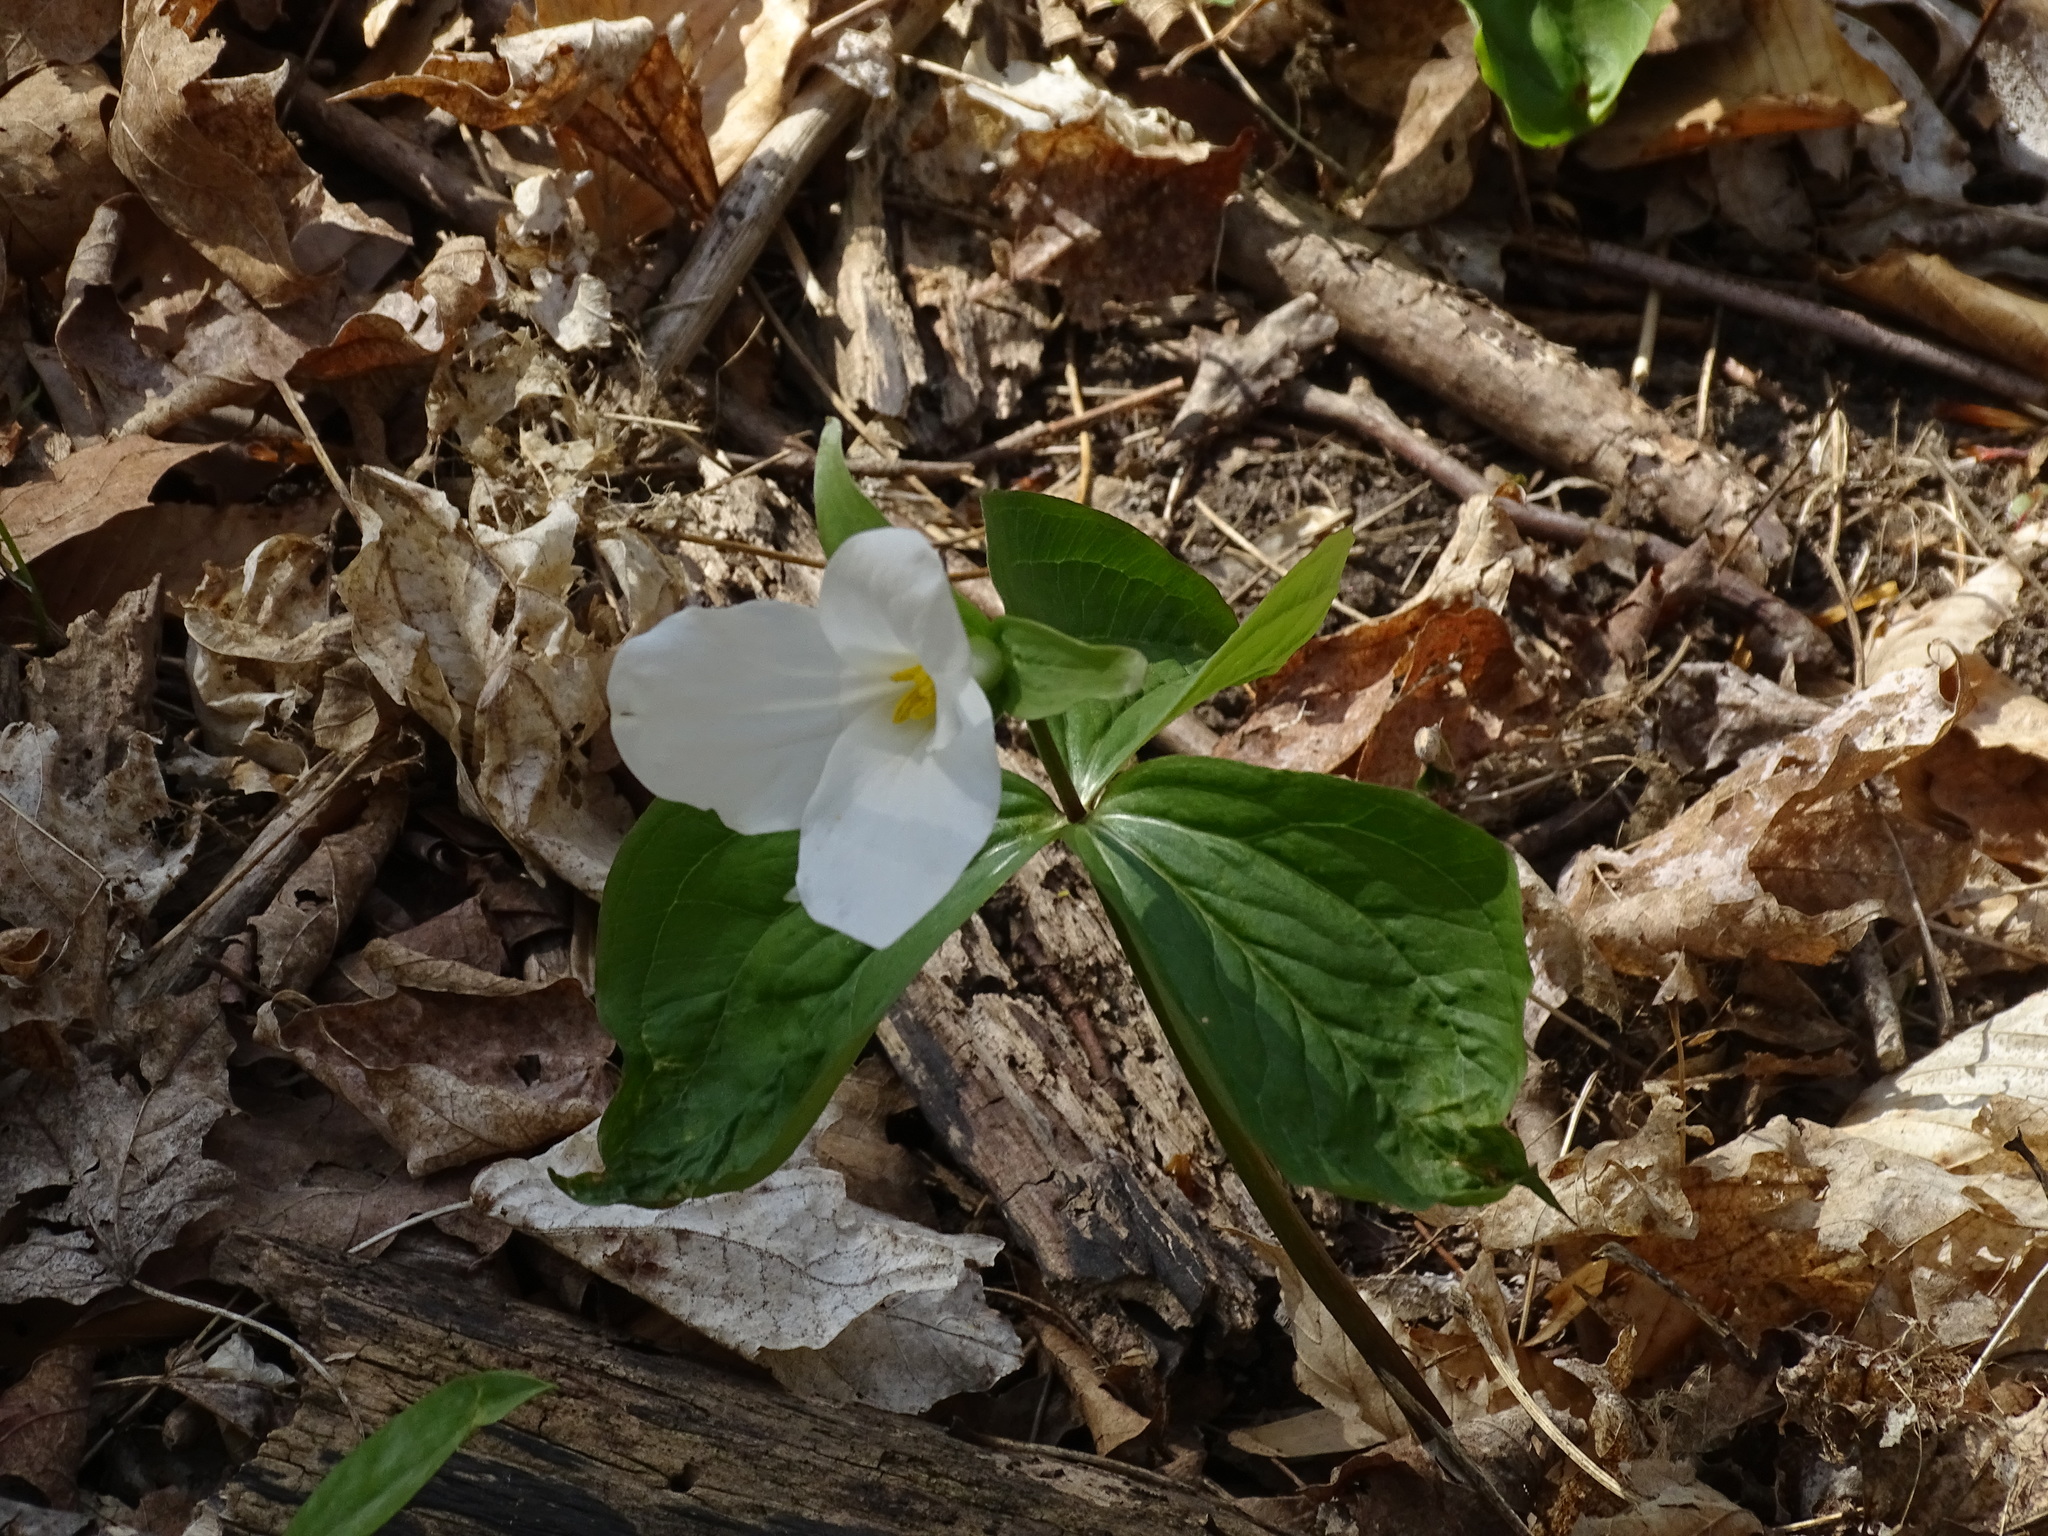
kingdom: Plantae
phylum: Tracheophyta
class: Liliopsida
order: Liliales
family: Melanthiaceae
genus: Trillium
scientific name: Trillium grandiflorum
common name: Great white trillium
